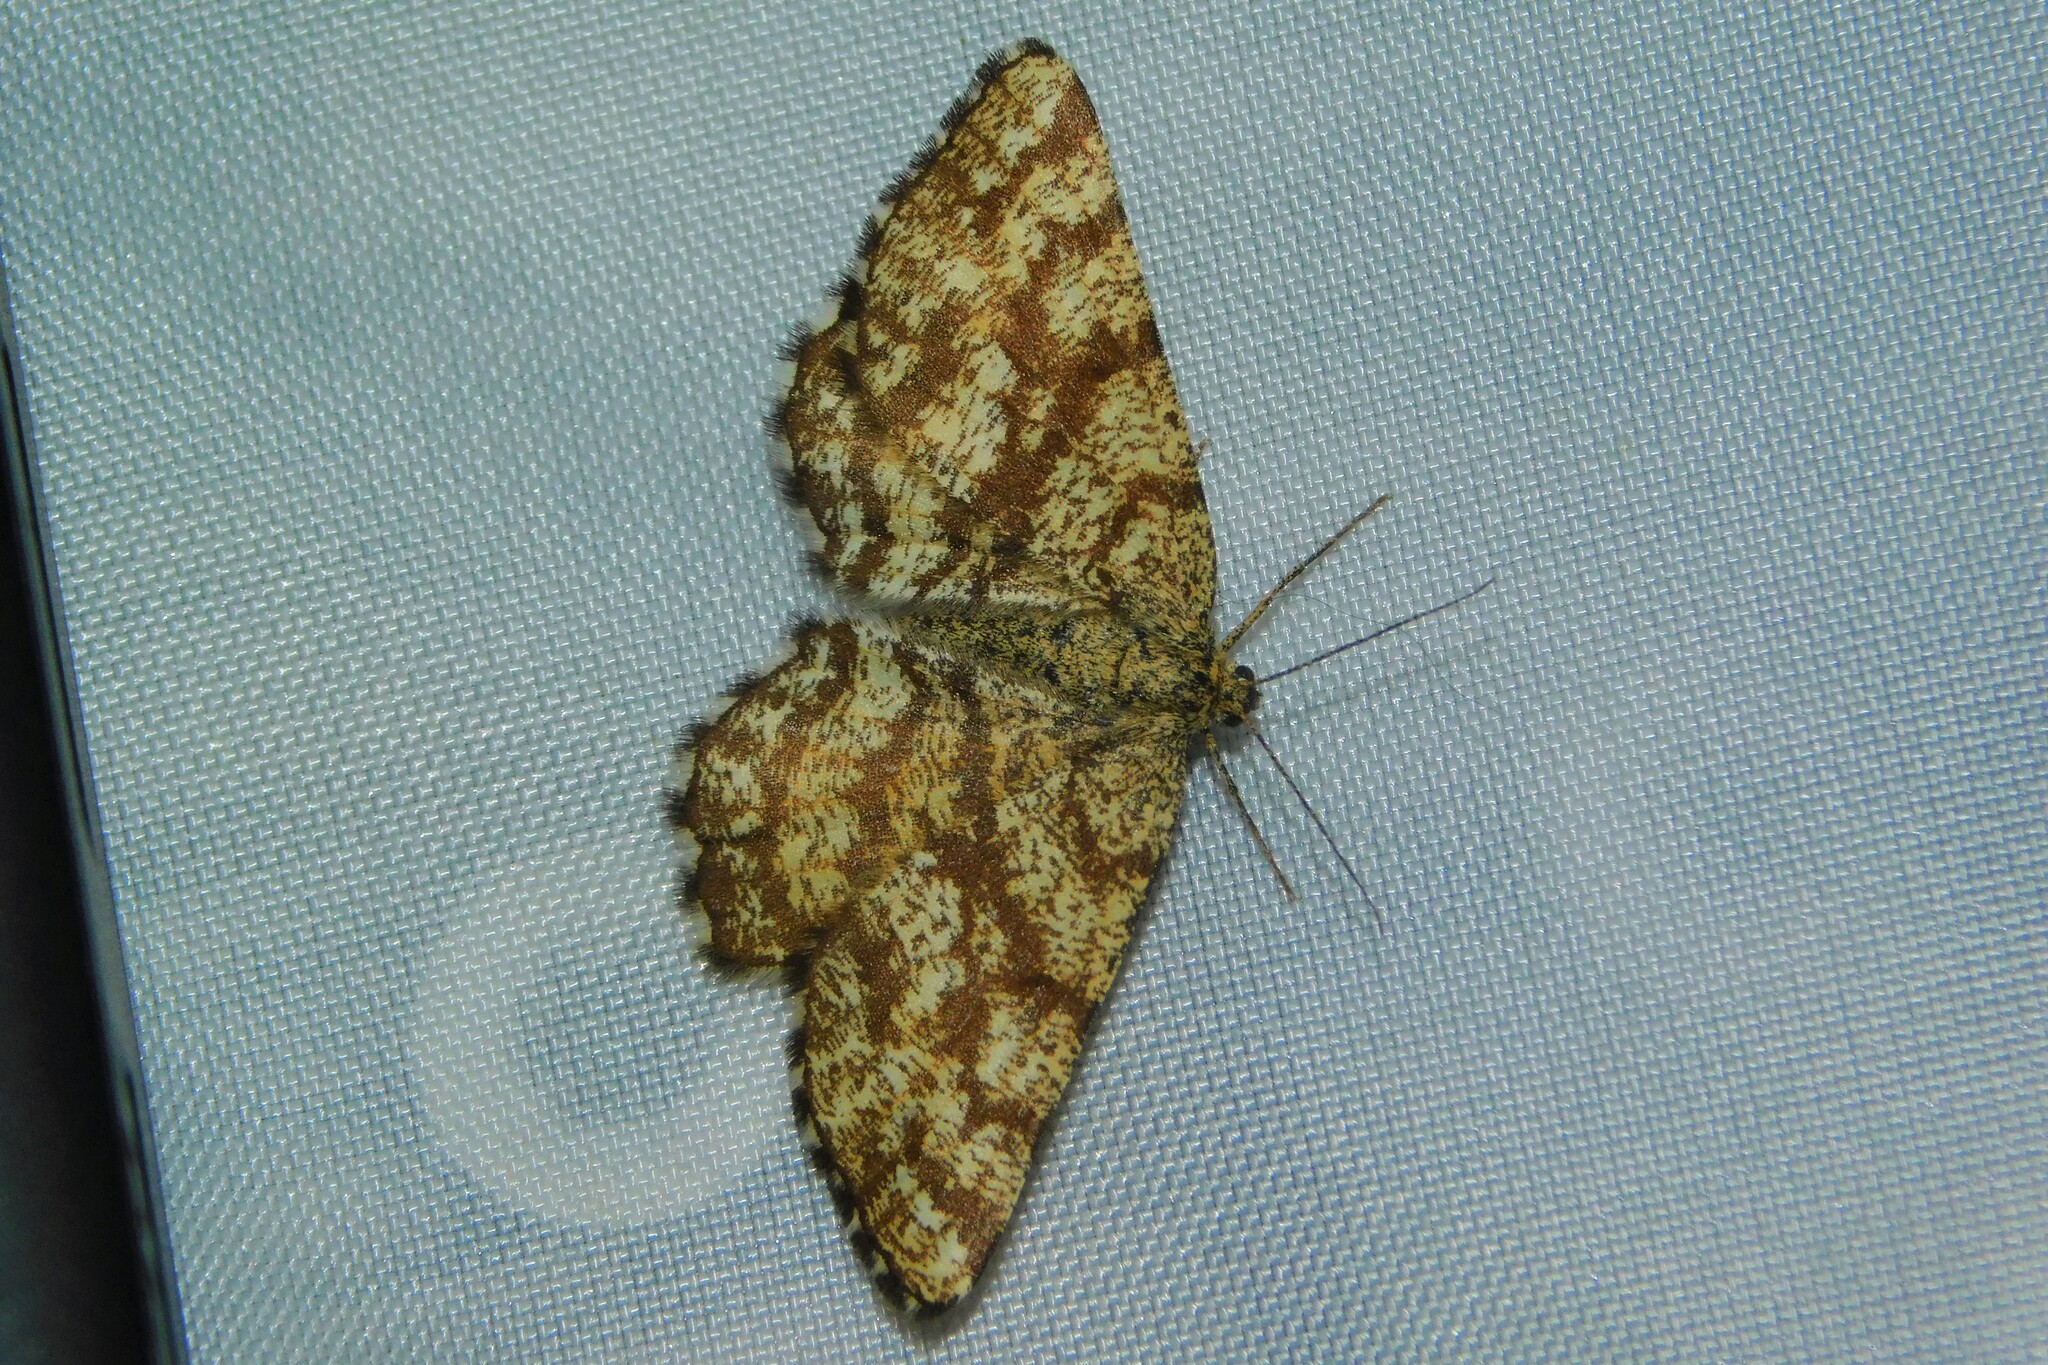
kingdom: Animalia
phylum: Arthropoda
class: Insecta
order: Lepidoptera
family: Geometridae
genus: Ematurga
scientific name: Ematurga atomaria
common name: Common heath
